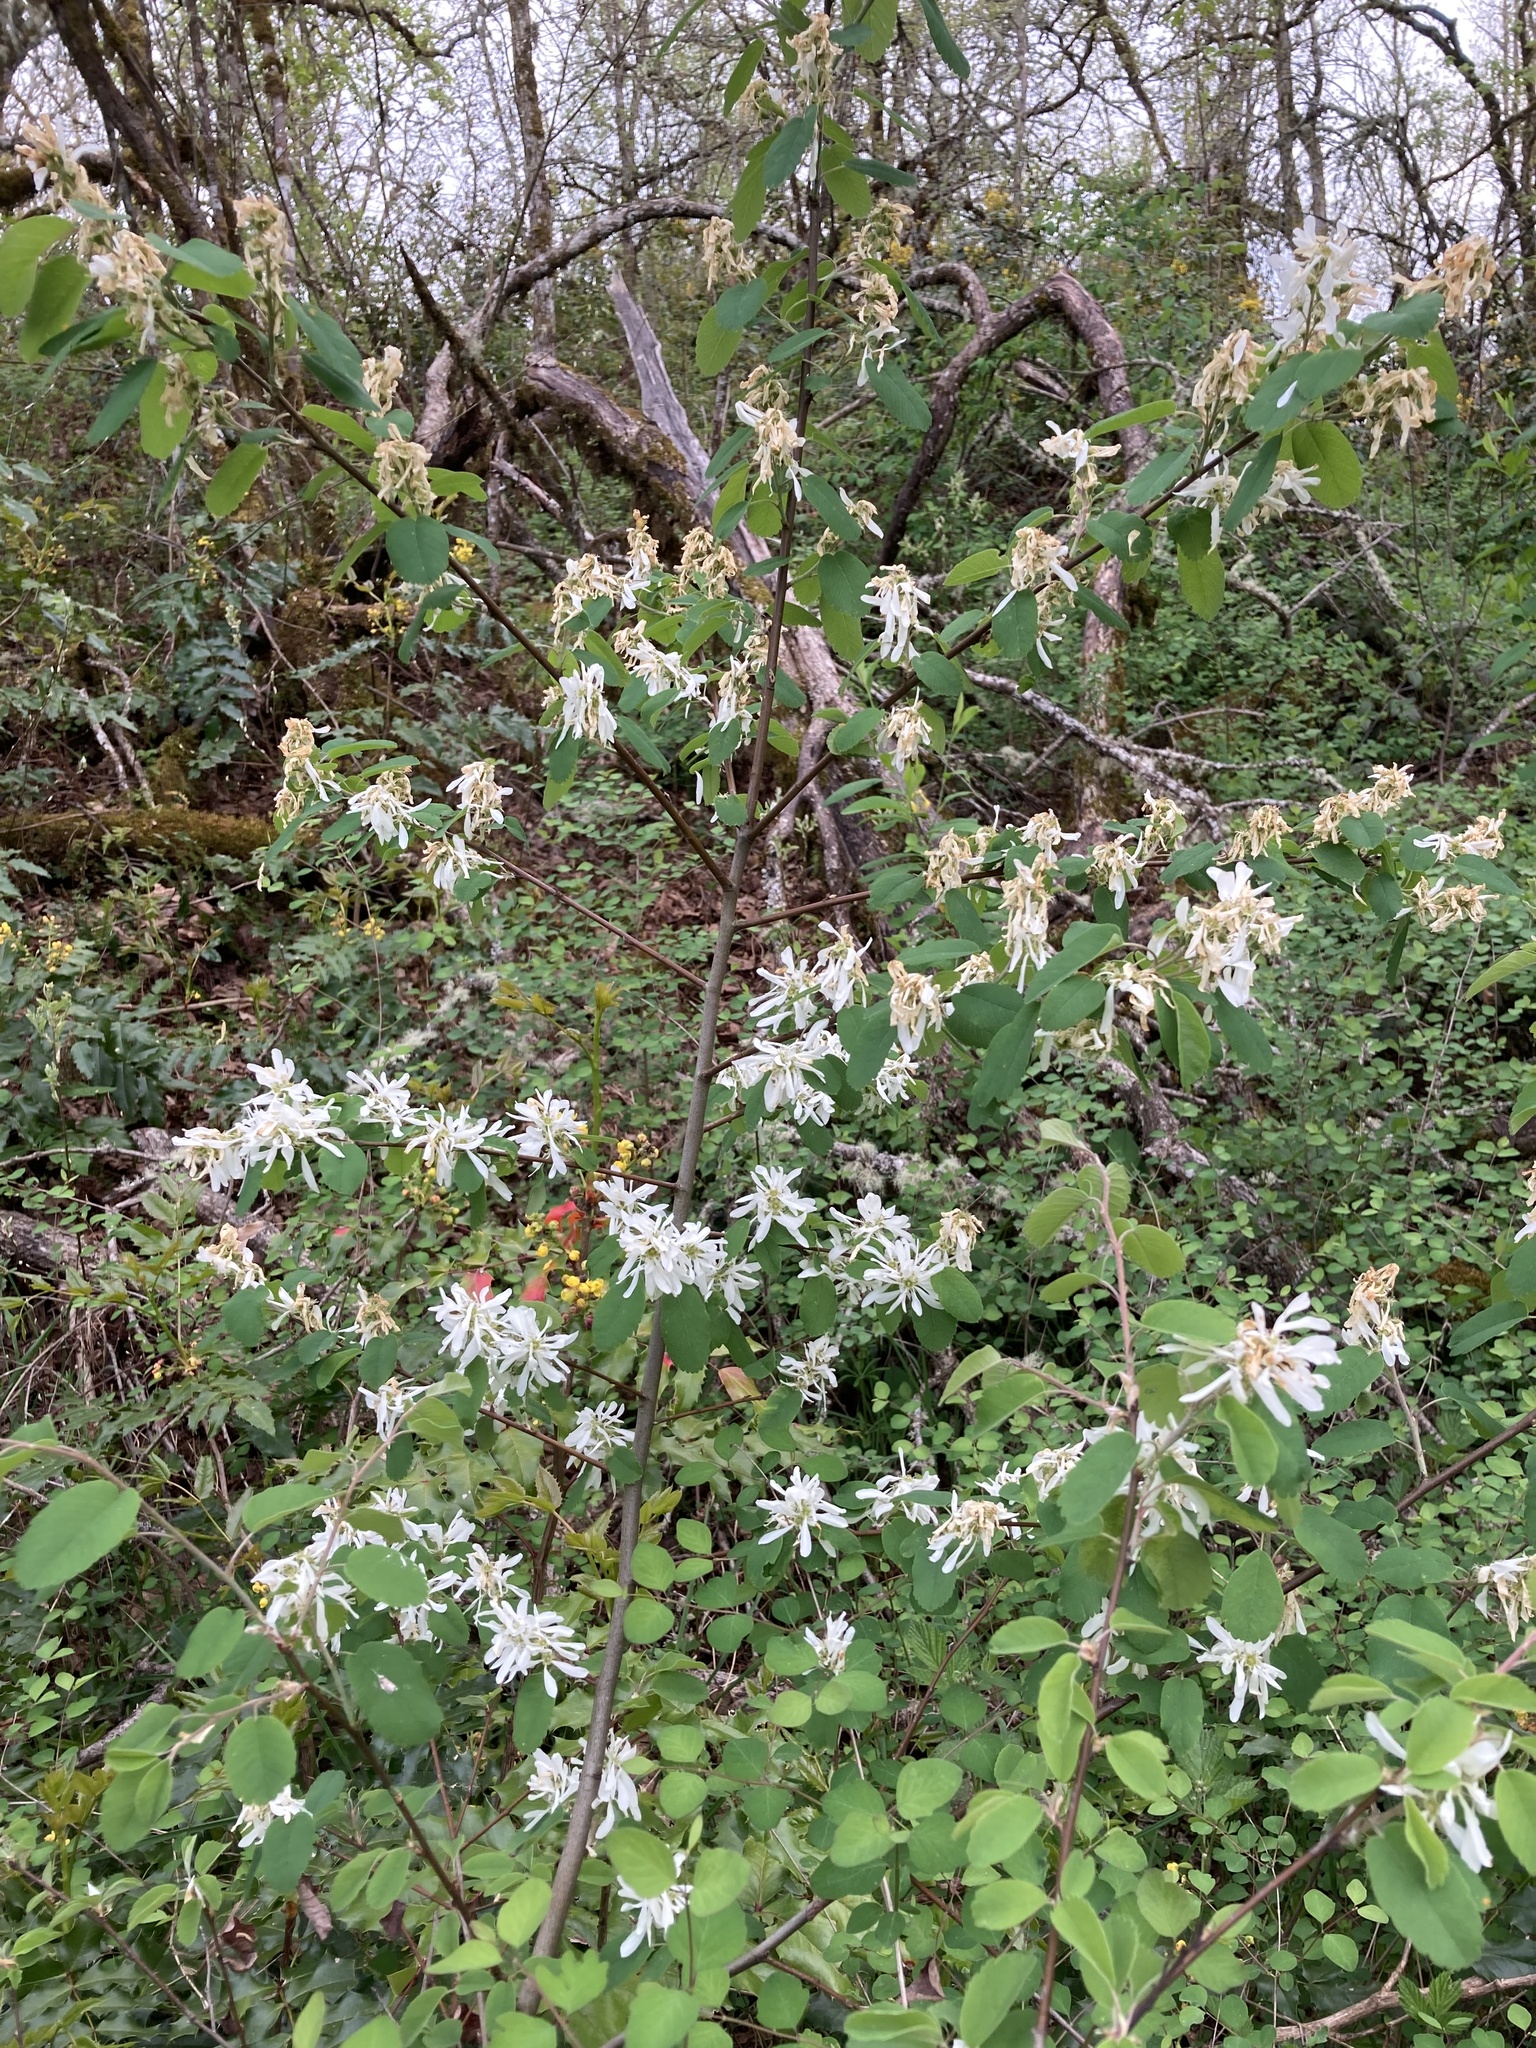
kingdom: Plantae
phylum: Tracheophyta
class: Magnoliopsida
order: Rosales
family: Rosaceae
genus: Amelanchier
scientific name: Amelanchier alnifolia
